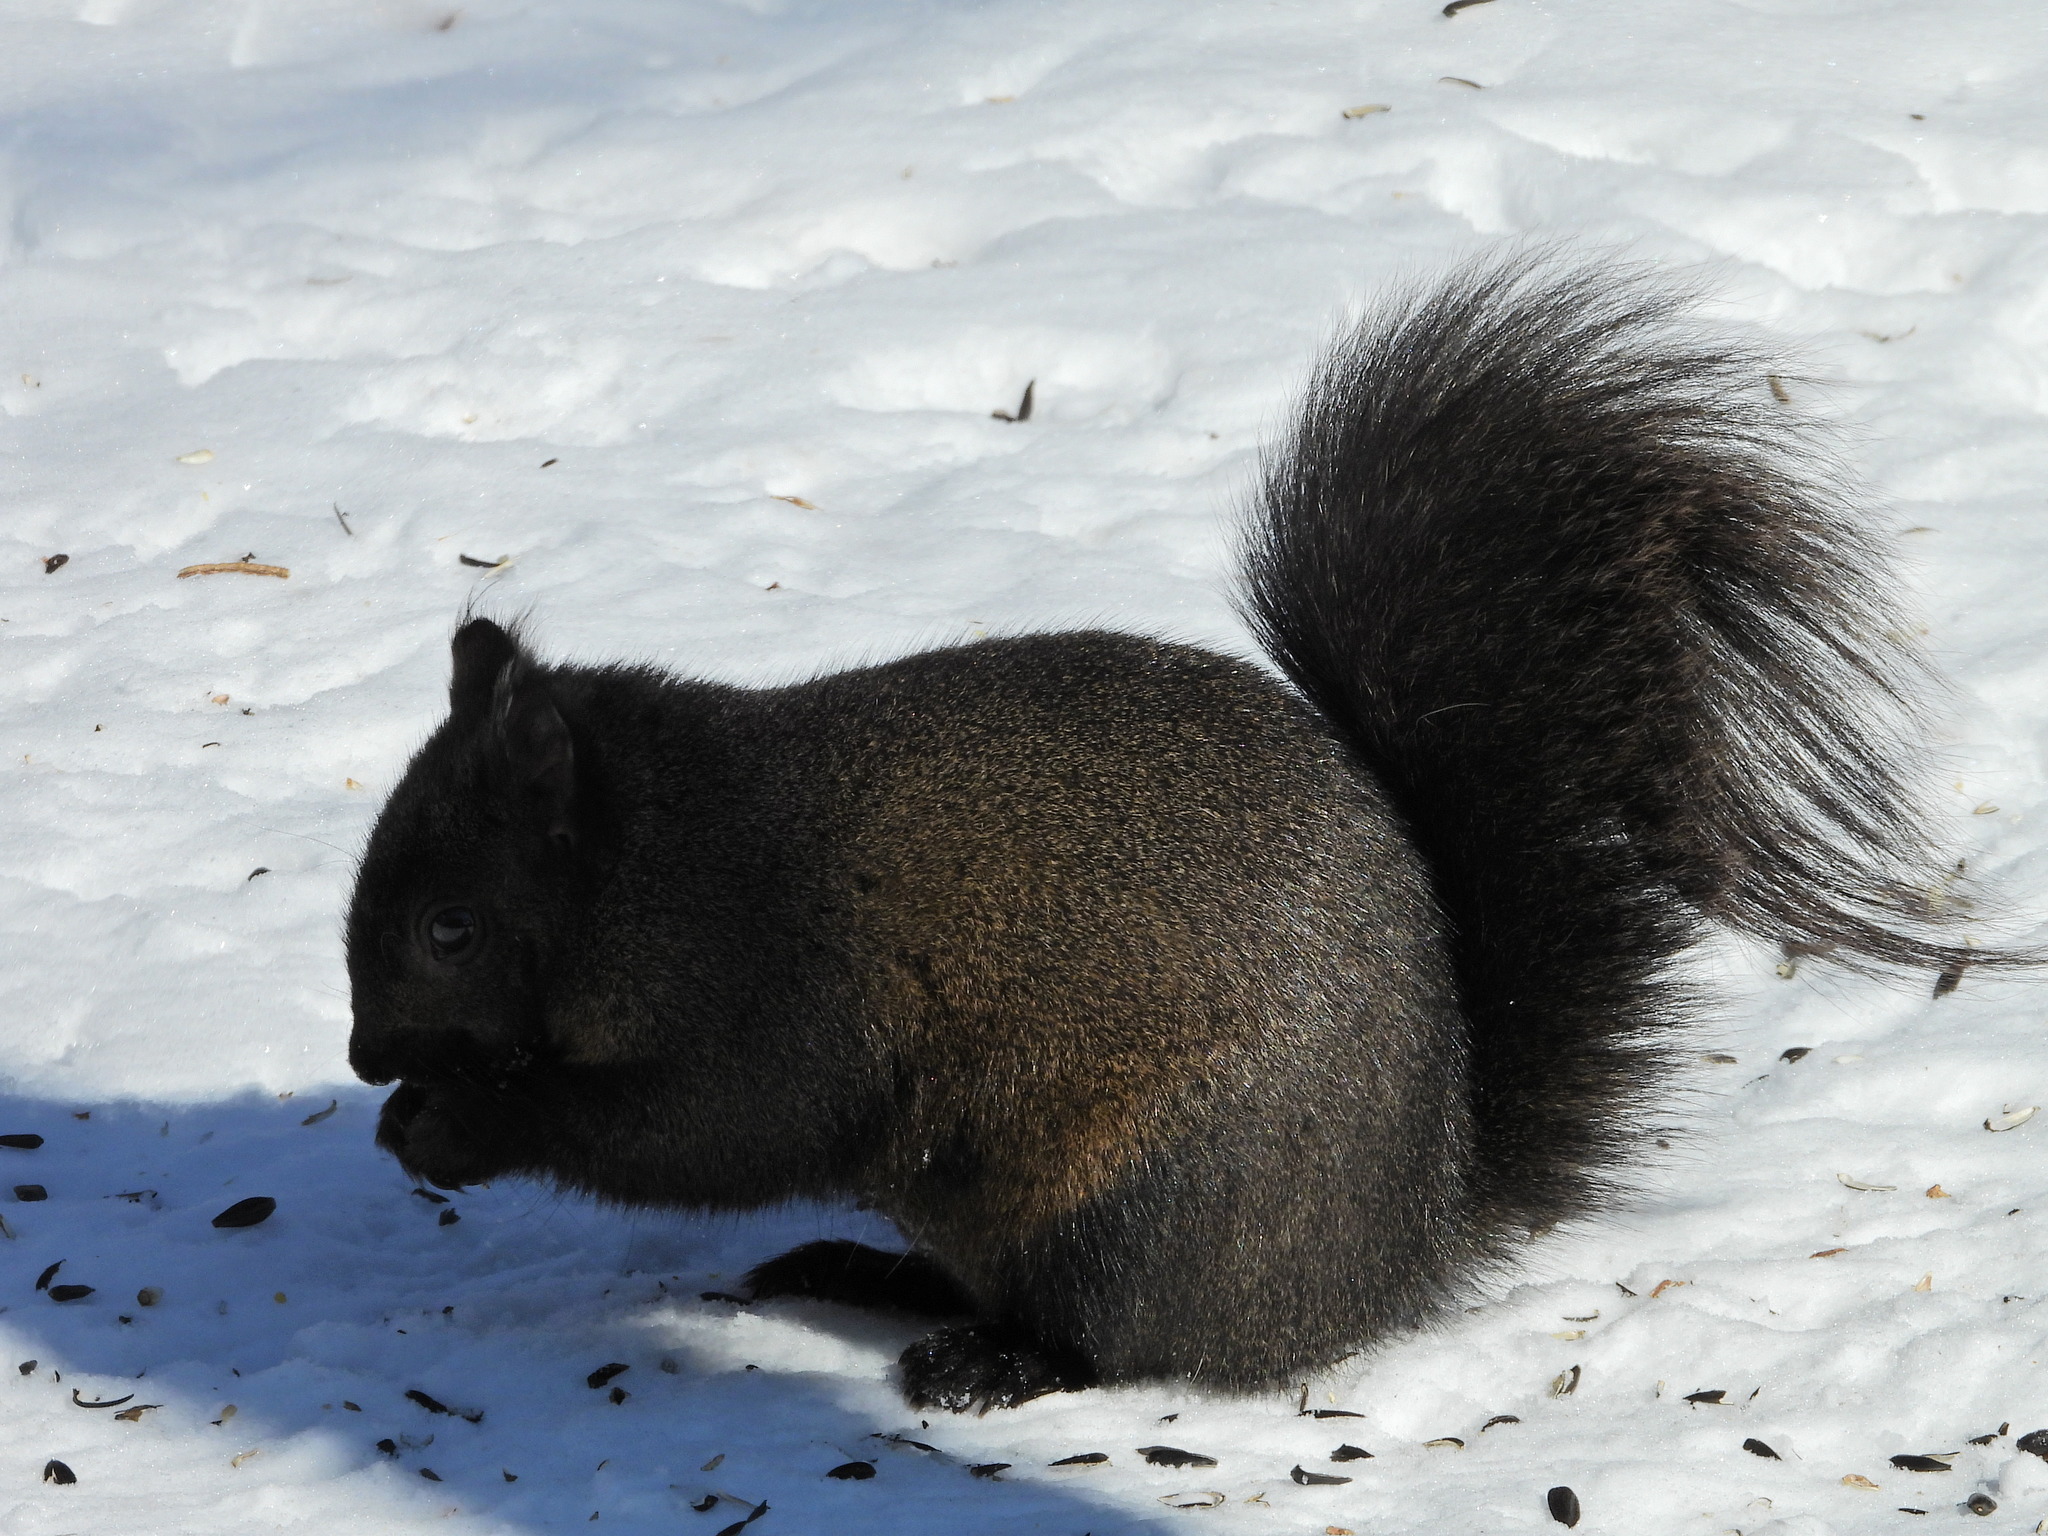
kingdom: Animalia
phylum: Chordata
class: Mammalia
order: Rodentia
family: Sciuridae
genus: Sciurus
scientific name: Sciurus carolinensis
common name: Eastern gray squirrel
